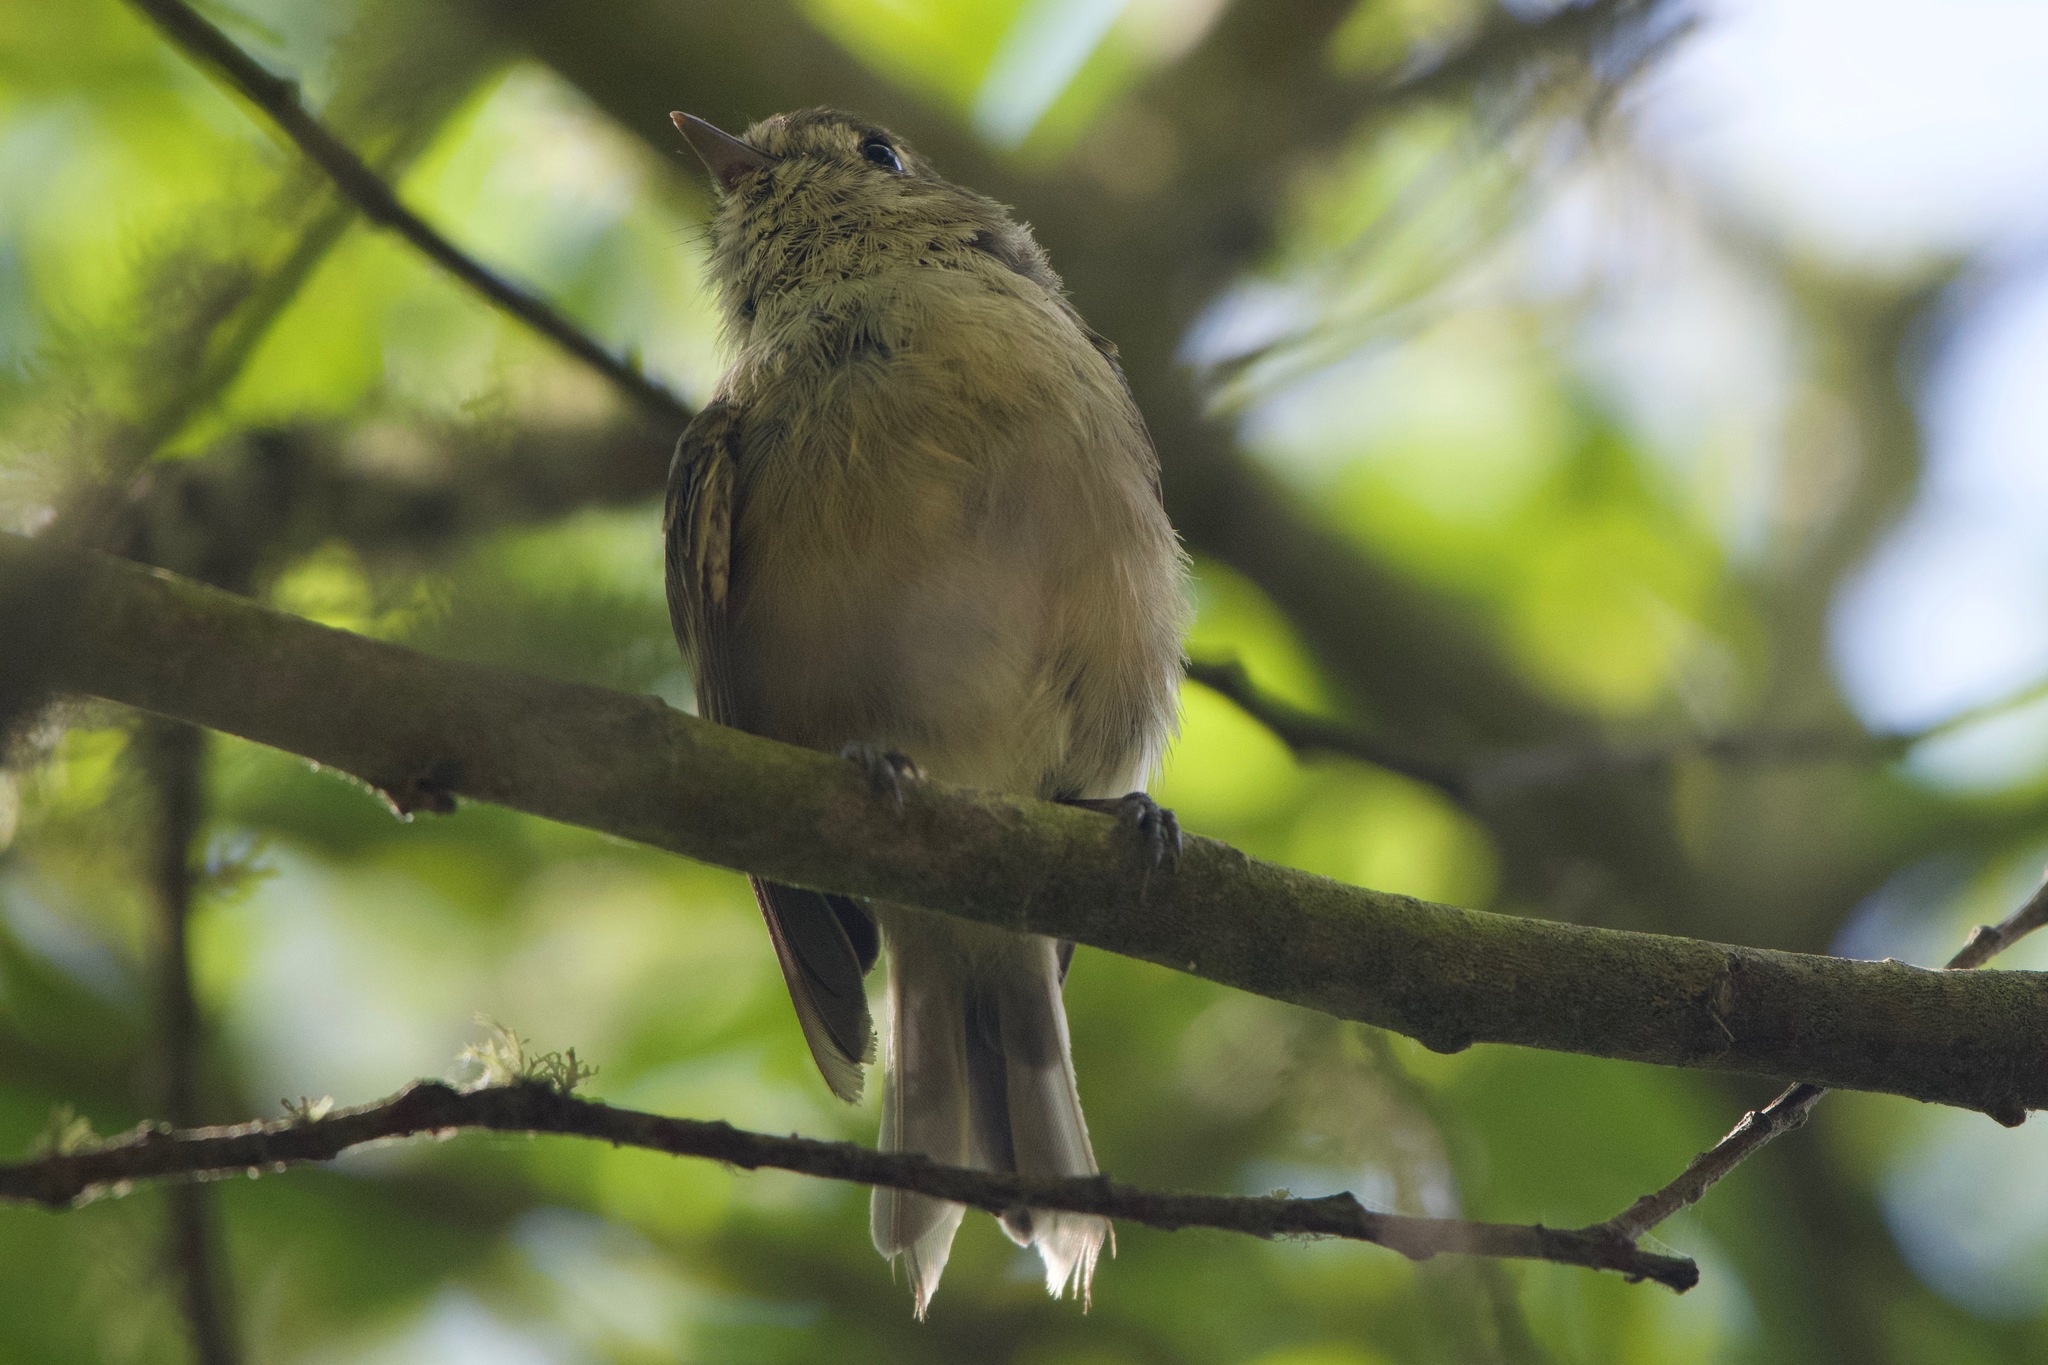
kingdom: Animalia
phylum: Chordata
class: Aves
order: Passeriformes
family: Vireonidae
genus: Vireo
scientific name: Vireo huttoni
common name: Hutton's vireo
